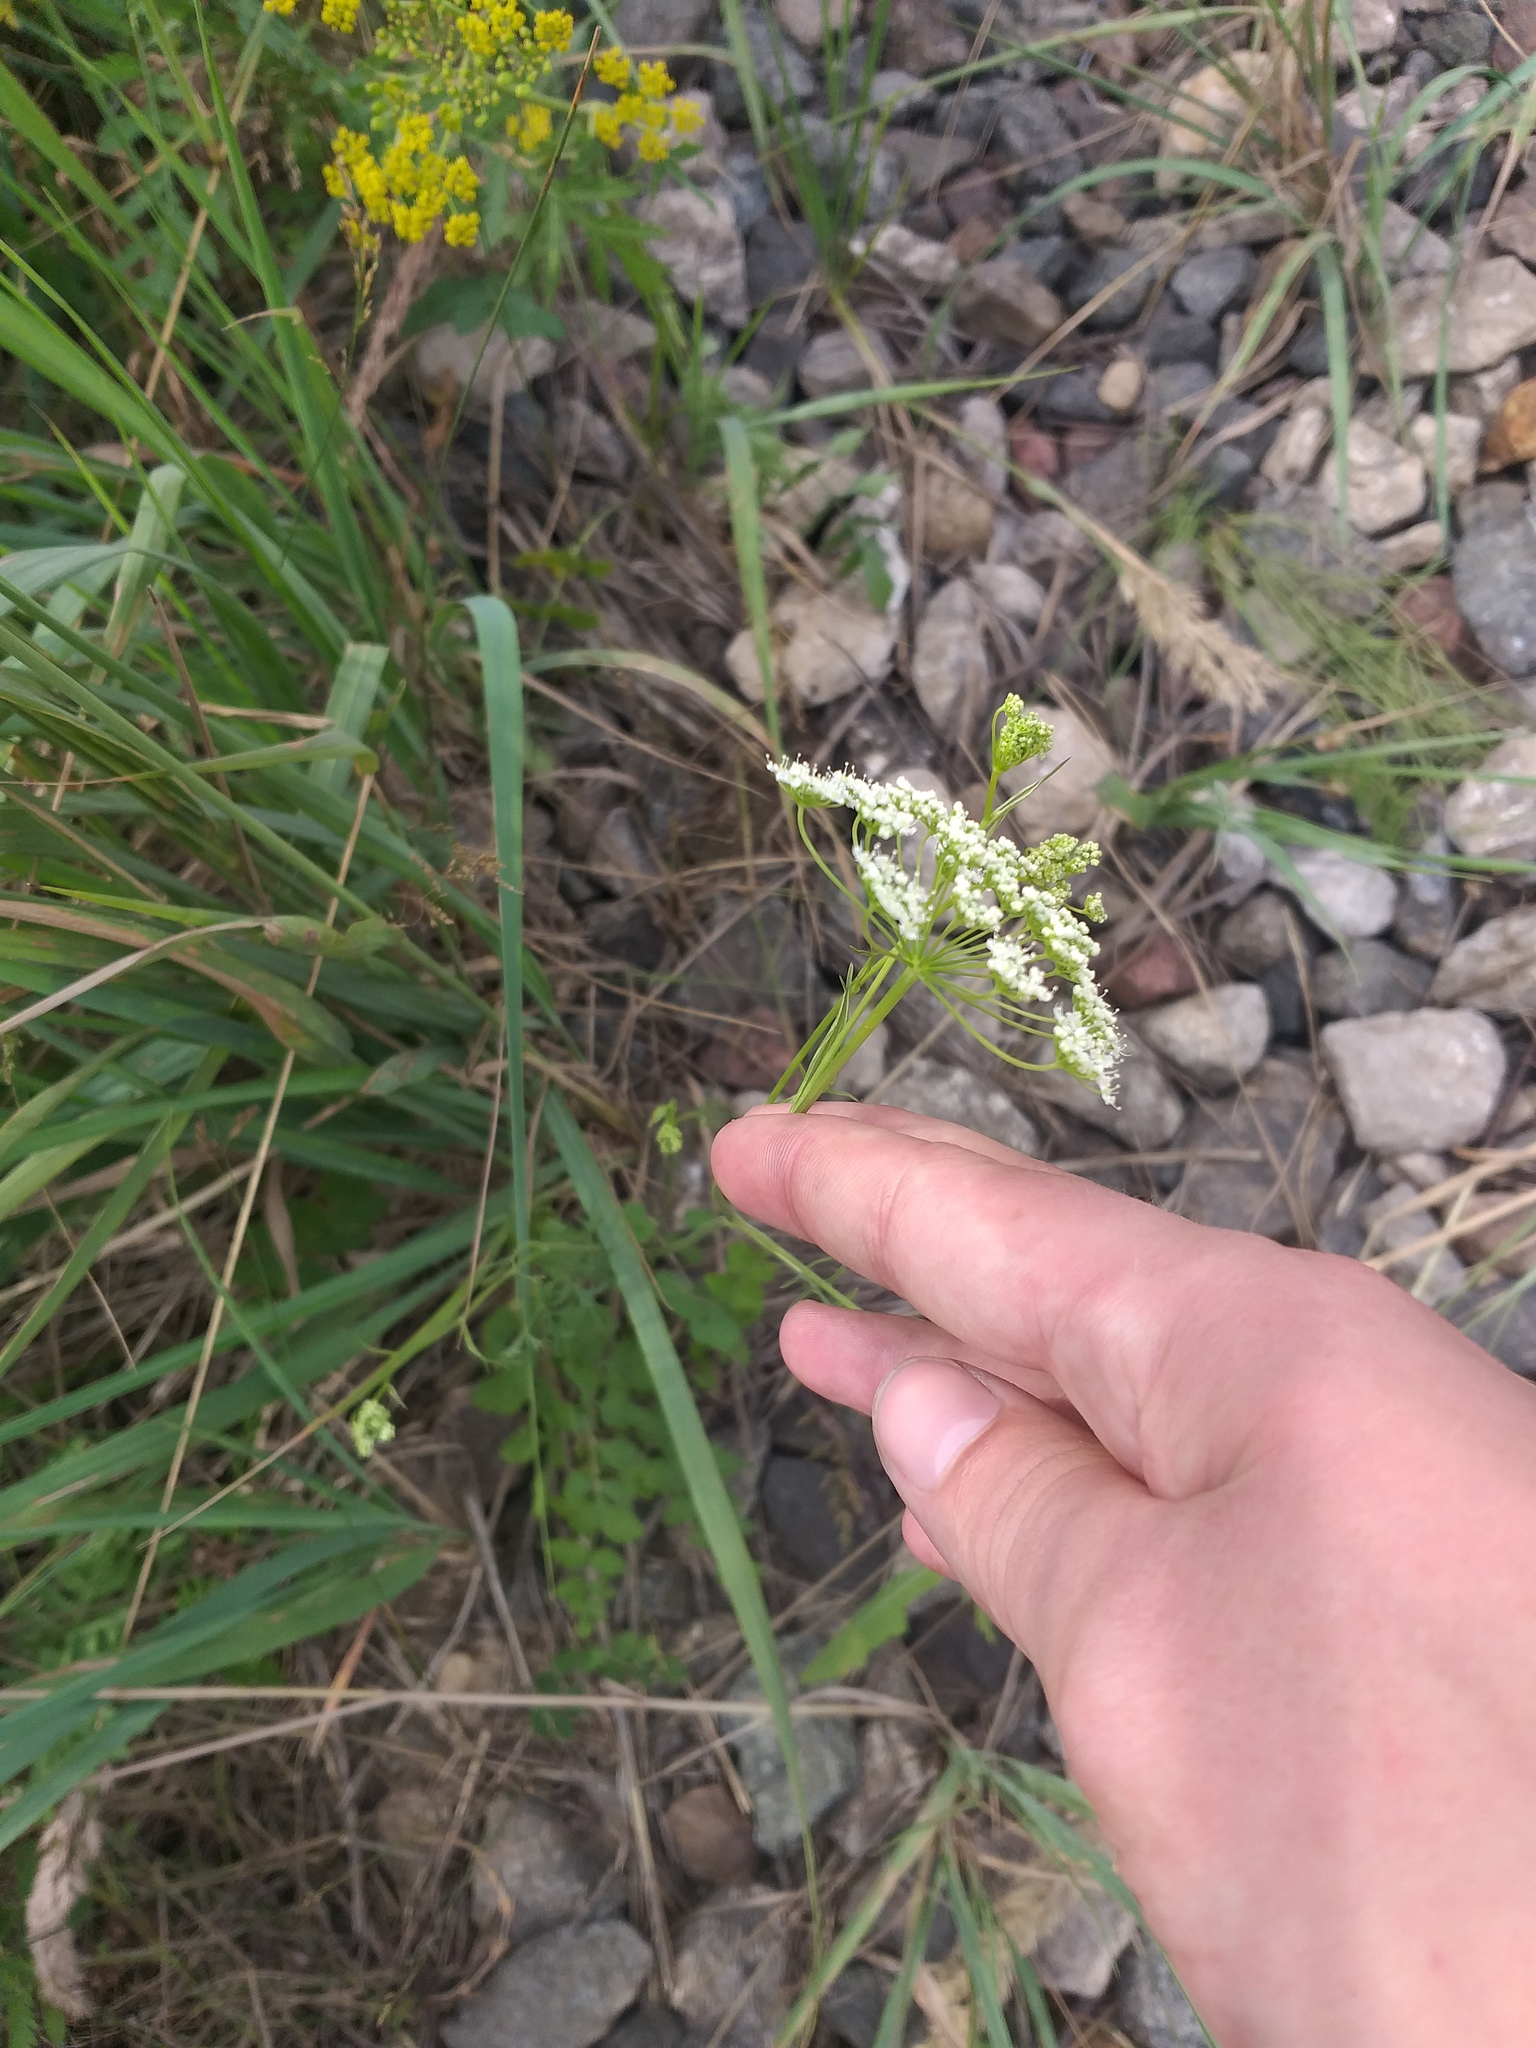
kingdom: Plantae
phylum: Tracheophyta
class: Magnoliopsida
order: Apiales
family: Apiaceae
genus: Pimpinella
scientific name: Pimpinella saxifraga
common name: Burnet-saxifrage
